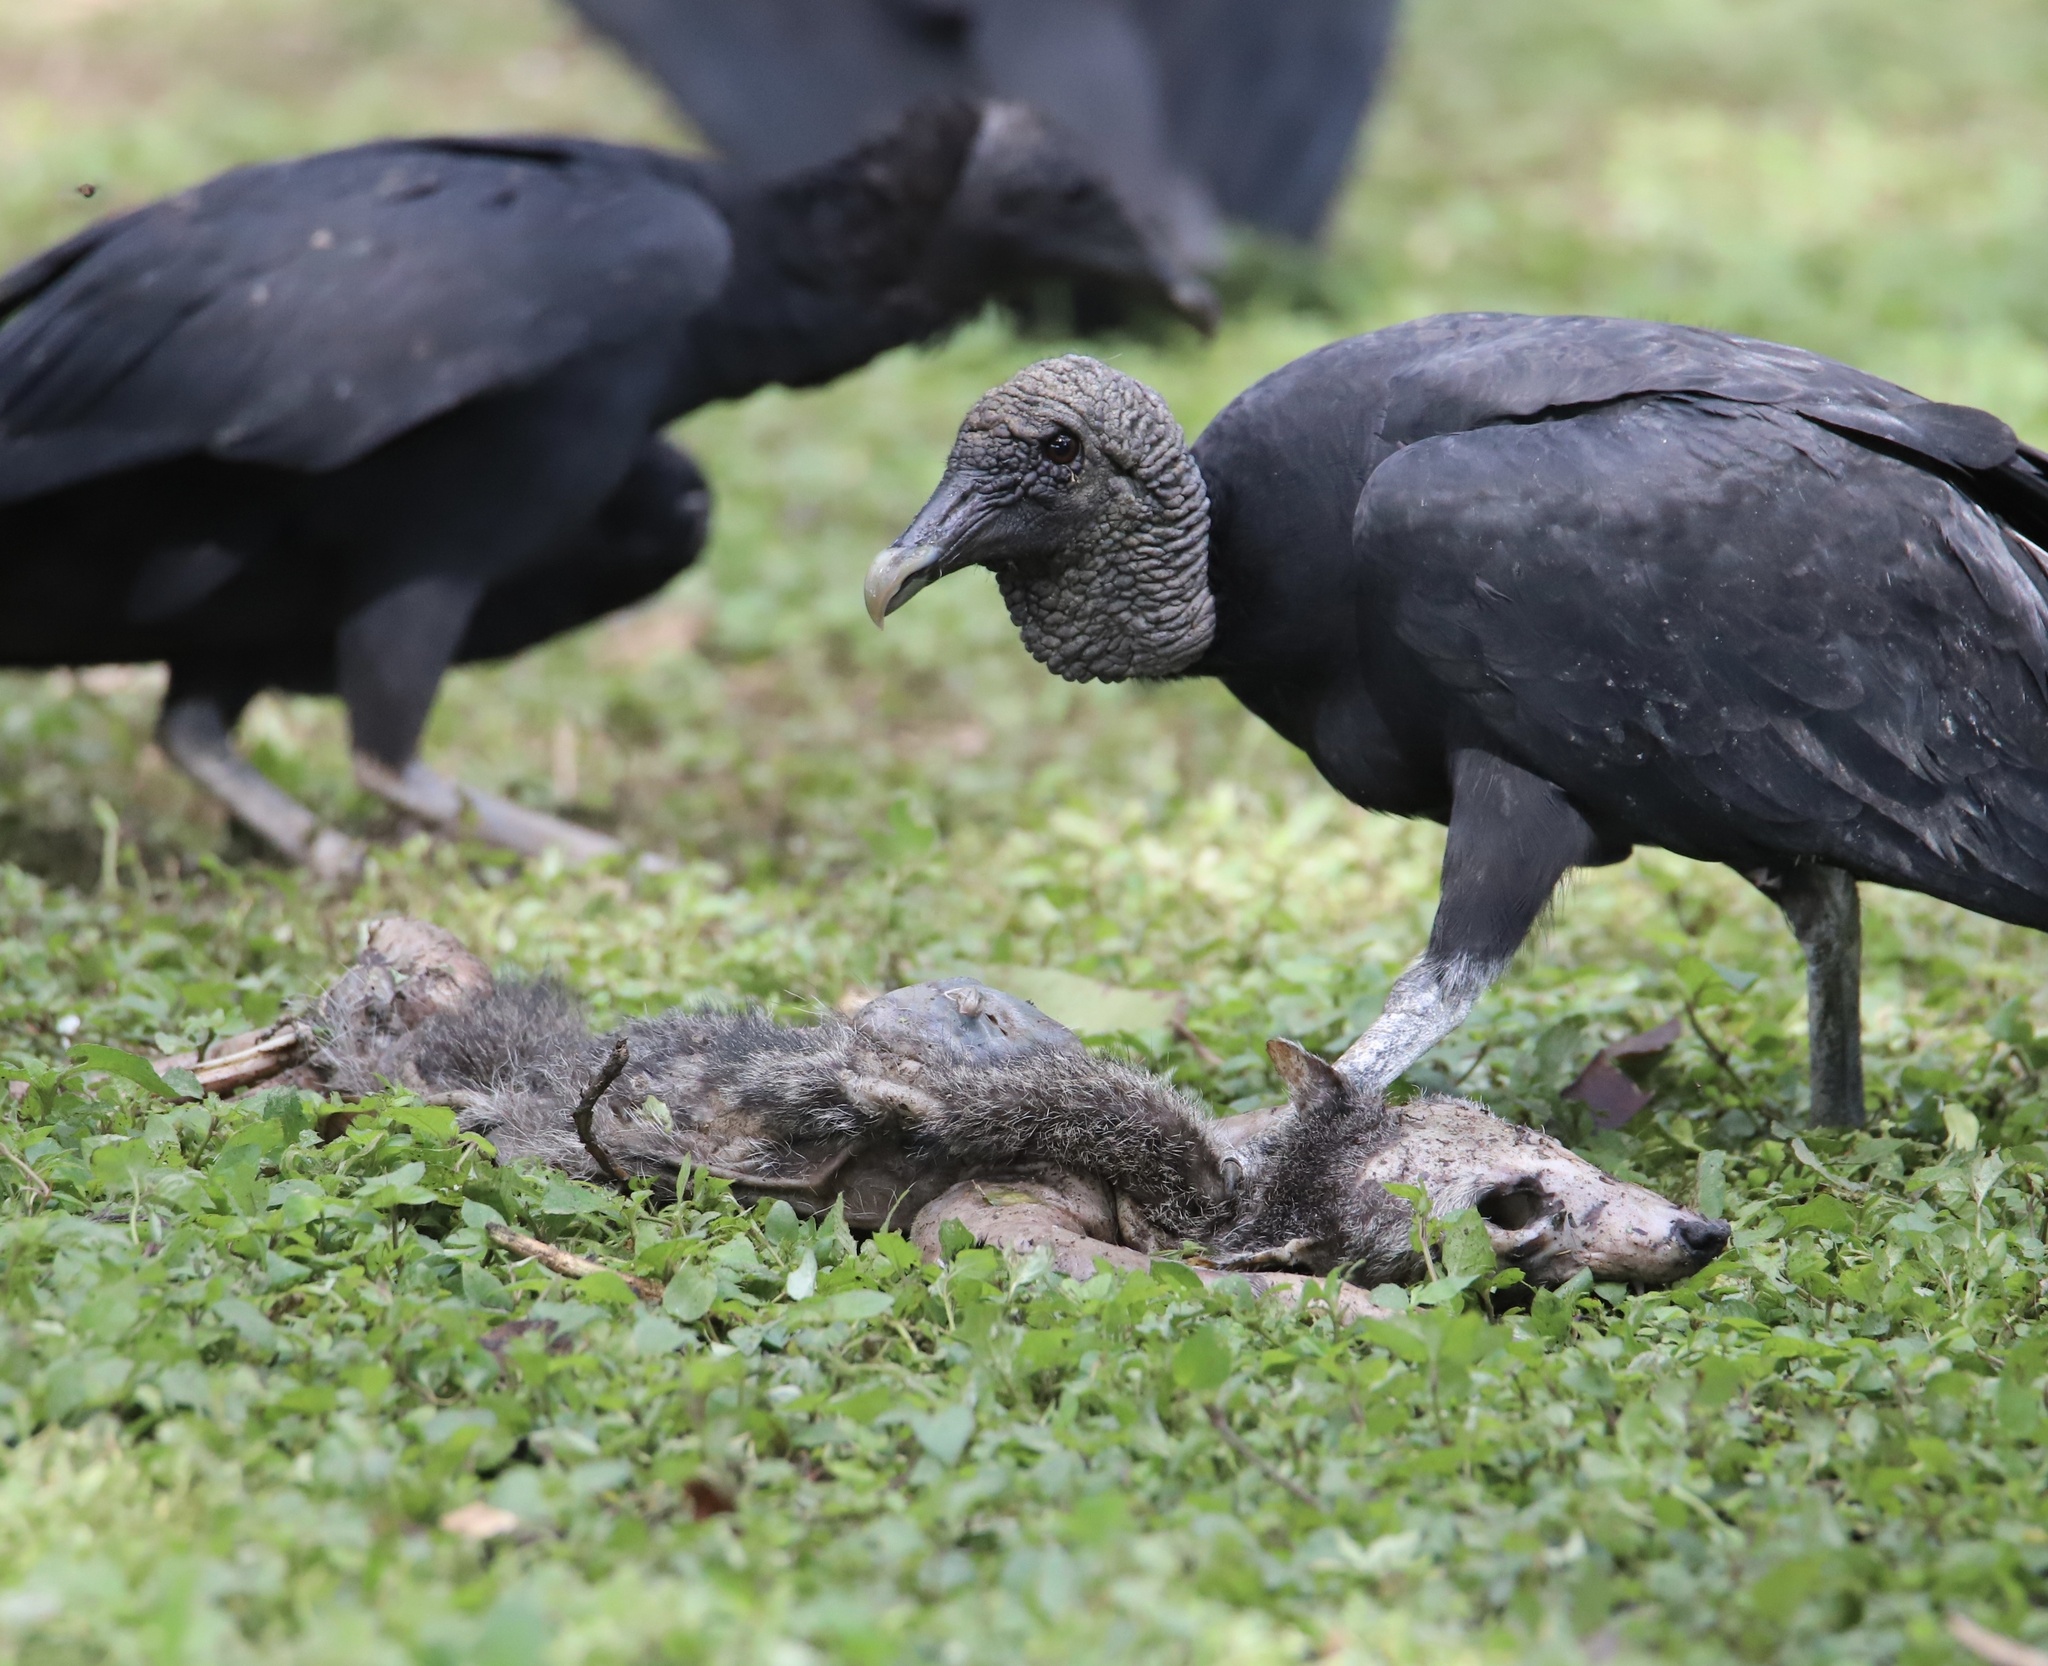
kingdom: Animalia
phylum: Chordata
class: Aves
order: Accipitriformes
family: Cathartidae
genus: Coragyps
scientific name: Coragyps atratus
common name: Black vulture
